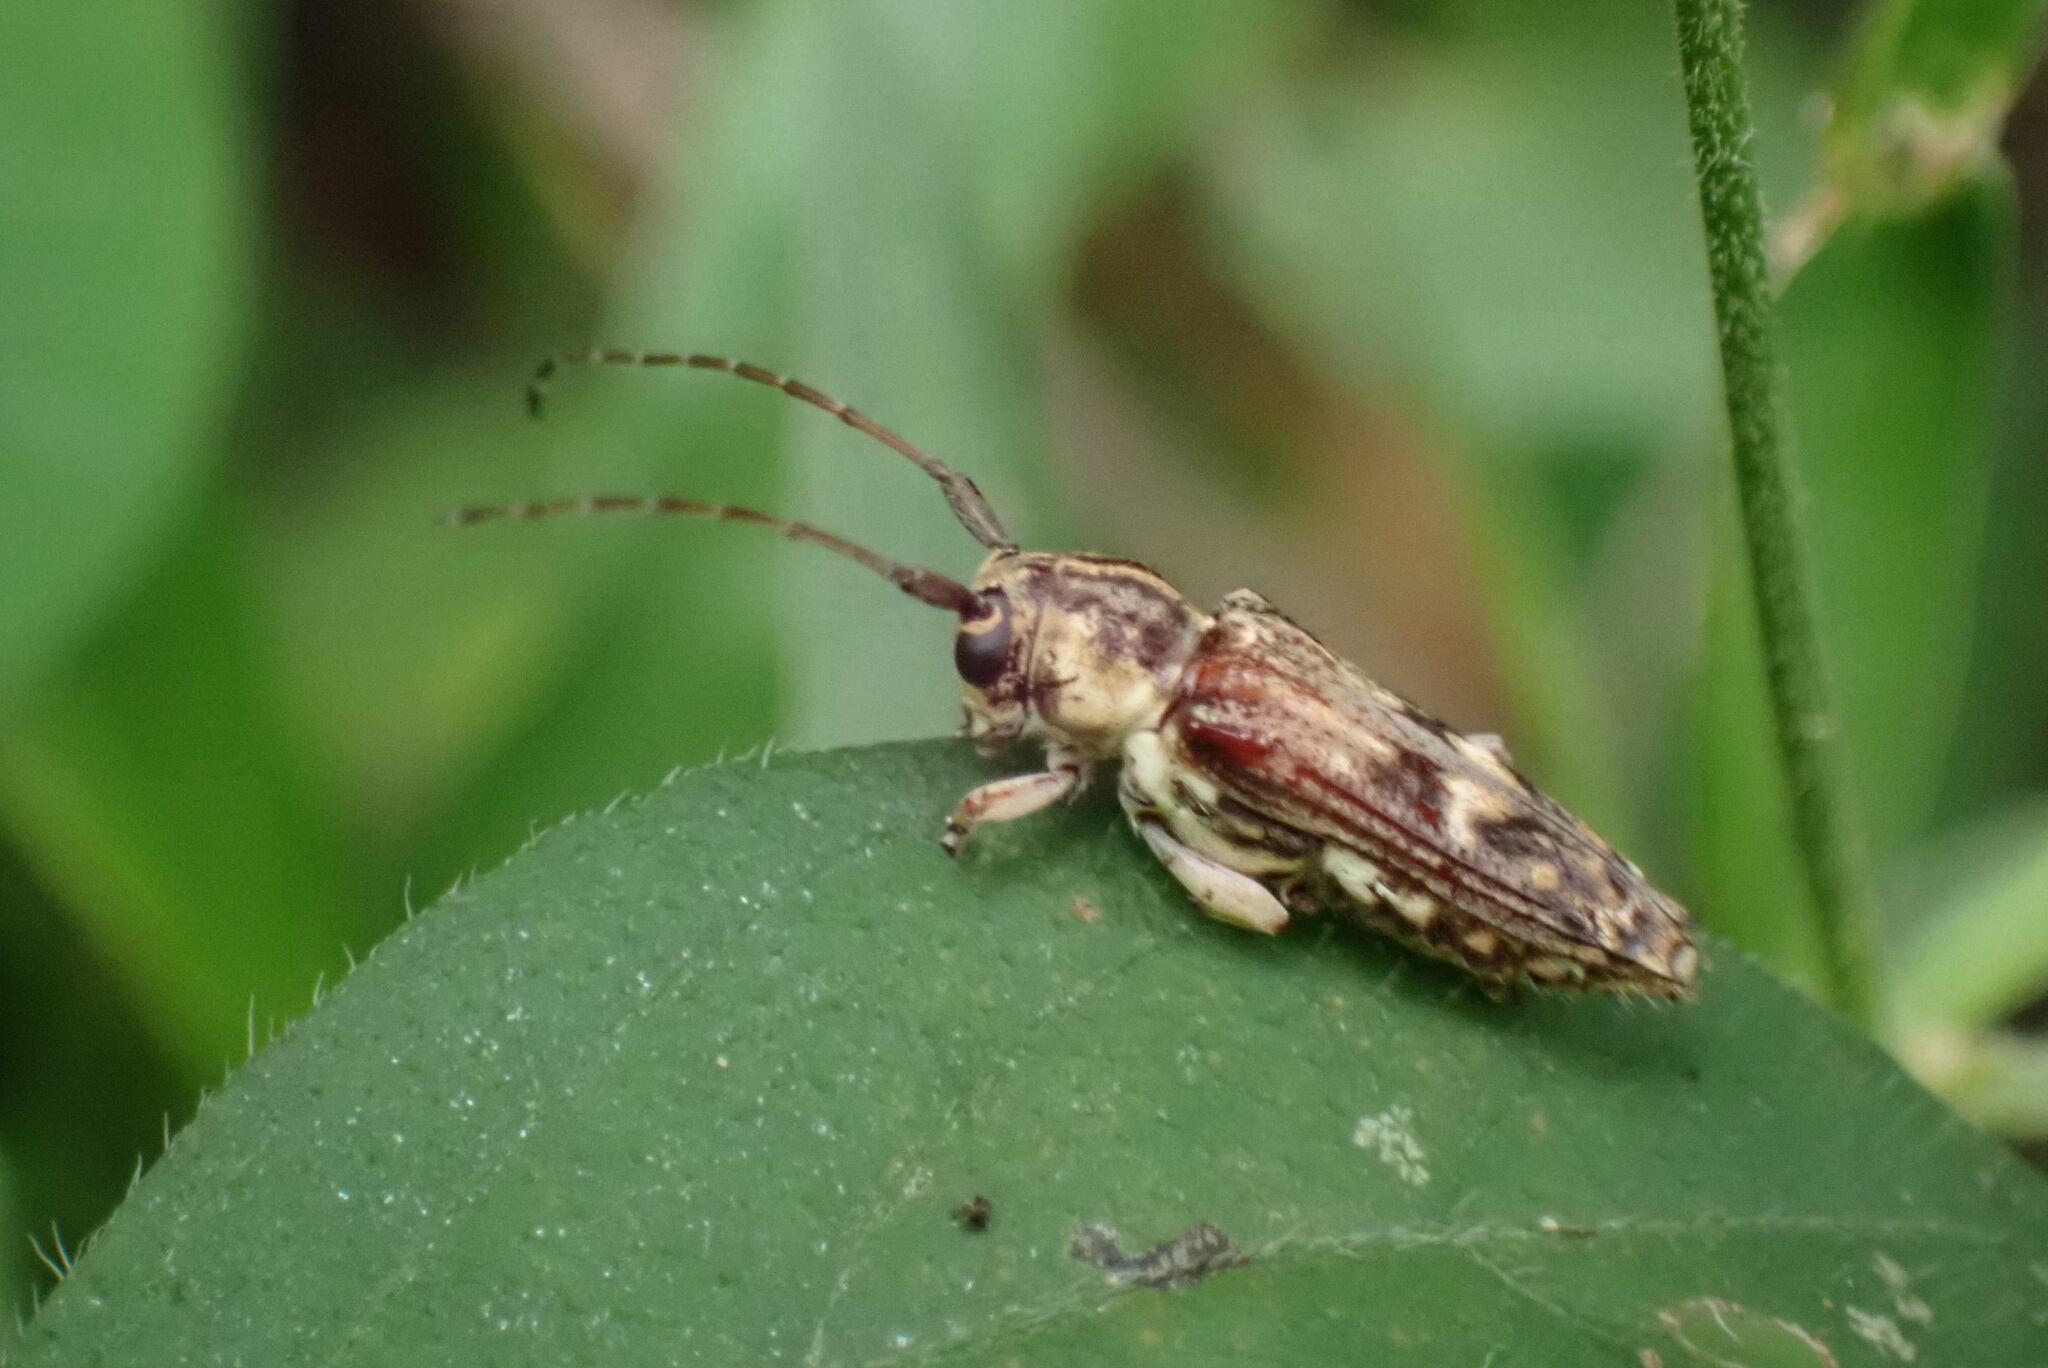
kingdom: Animalia
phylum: Arthropoda
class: Insecta
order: Coleoptera
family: Cerambycidae
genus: Glenea
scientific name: Glenea arida
